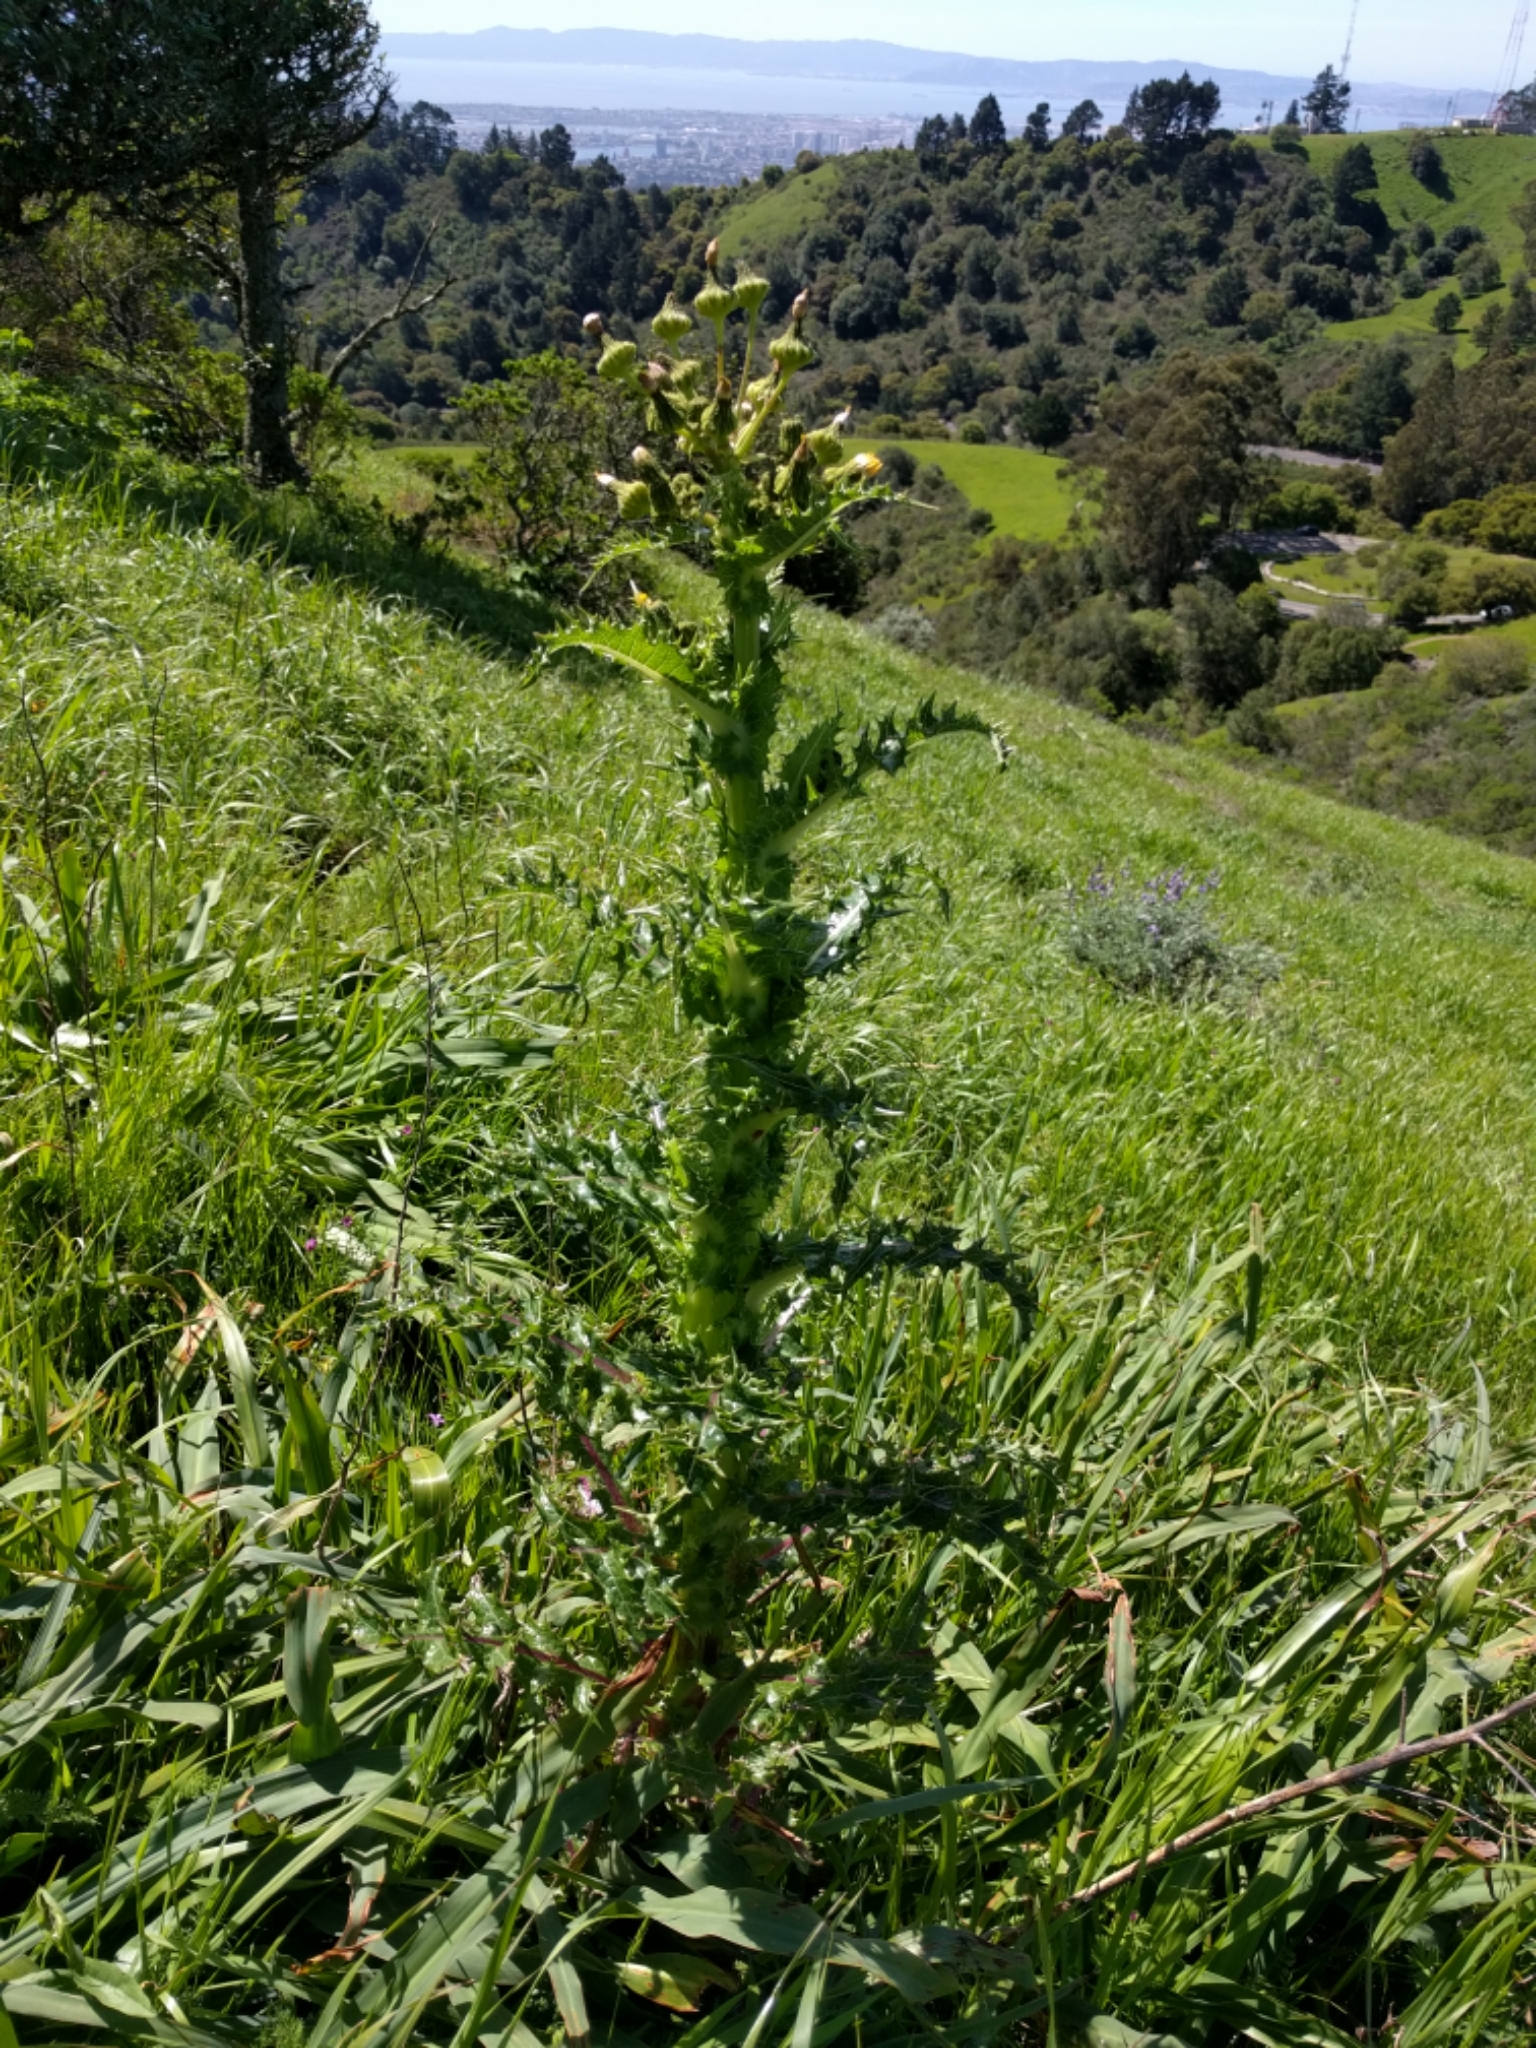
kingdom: Plantae
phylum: Tracheophyta
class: Magnoliopsida
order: Asterales
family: Asteraceae
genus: Sonchus
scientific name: Sonchus asper
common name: Prickly sow-thistle
